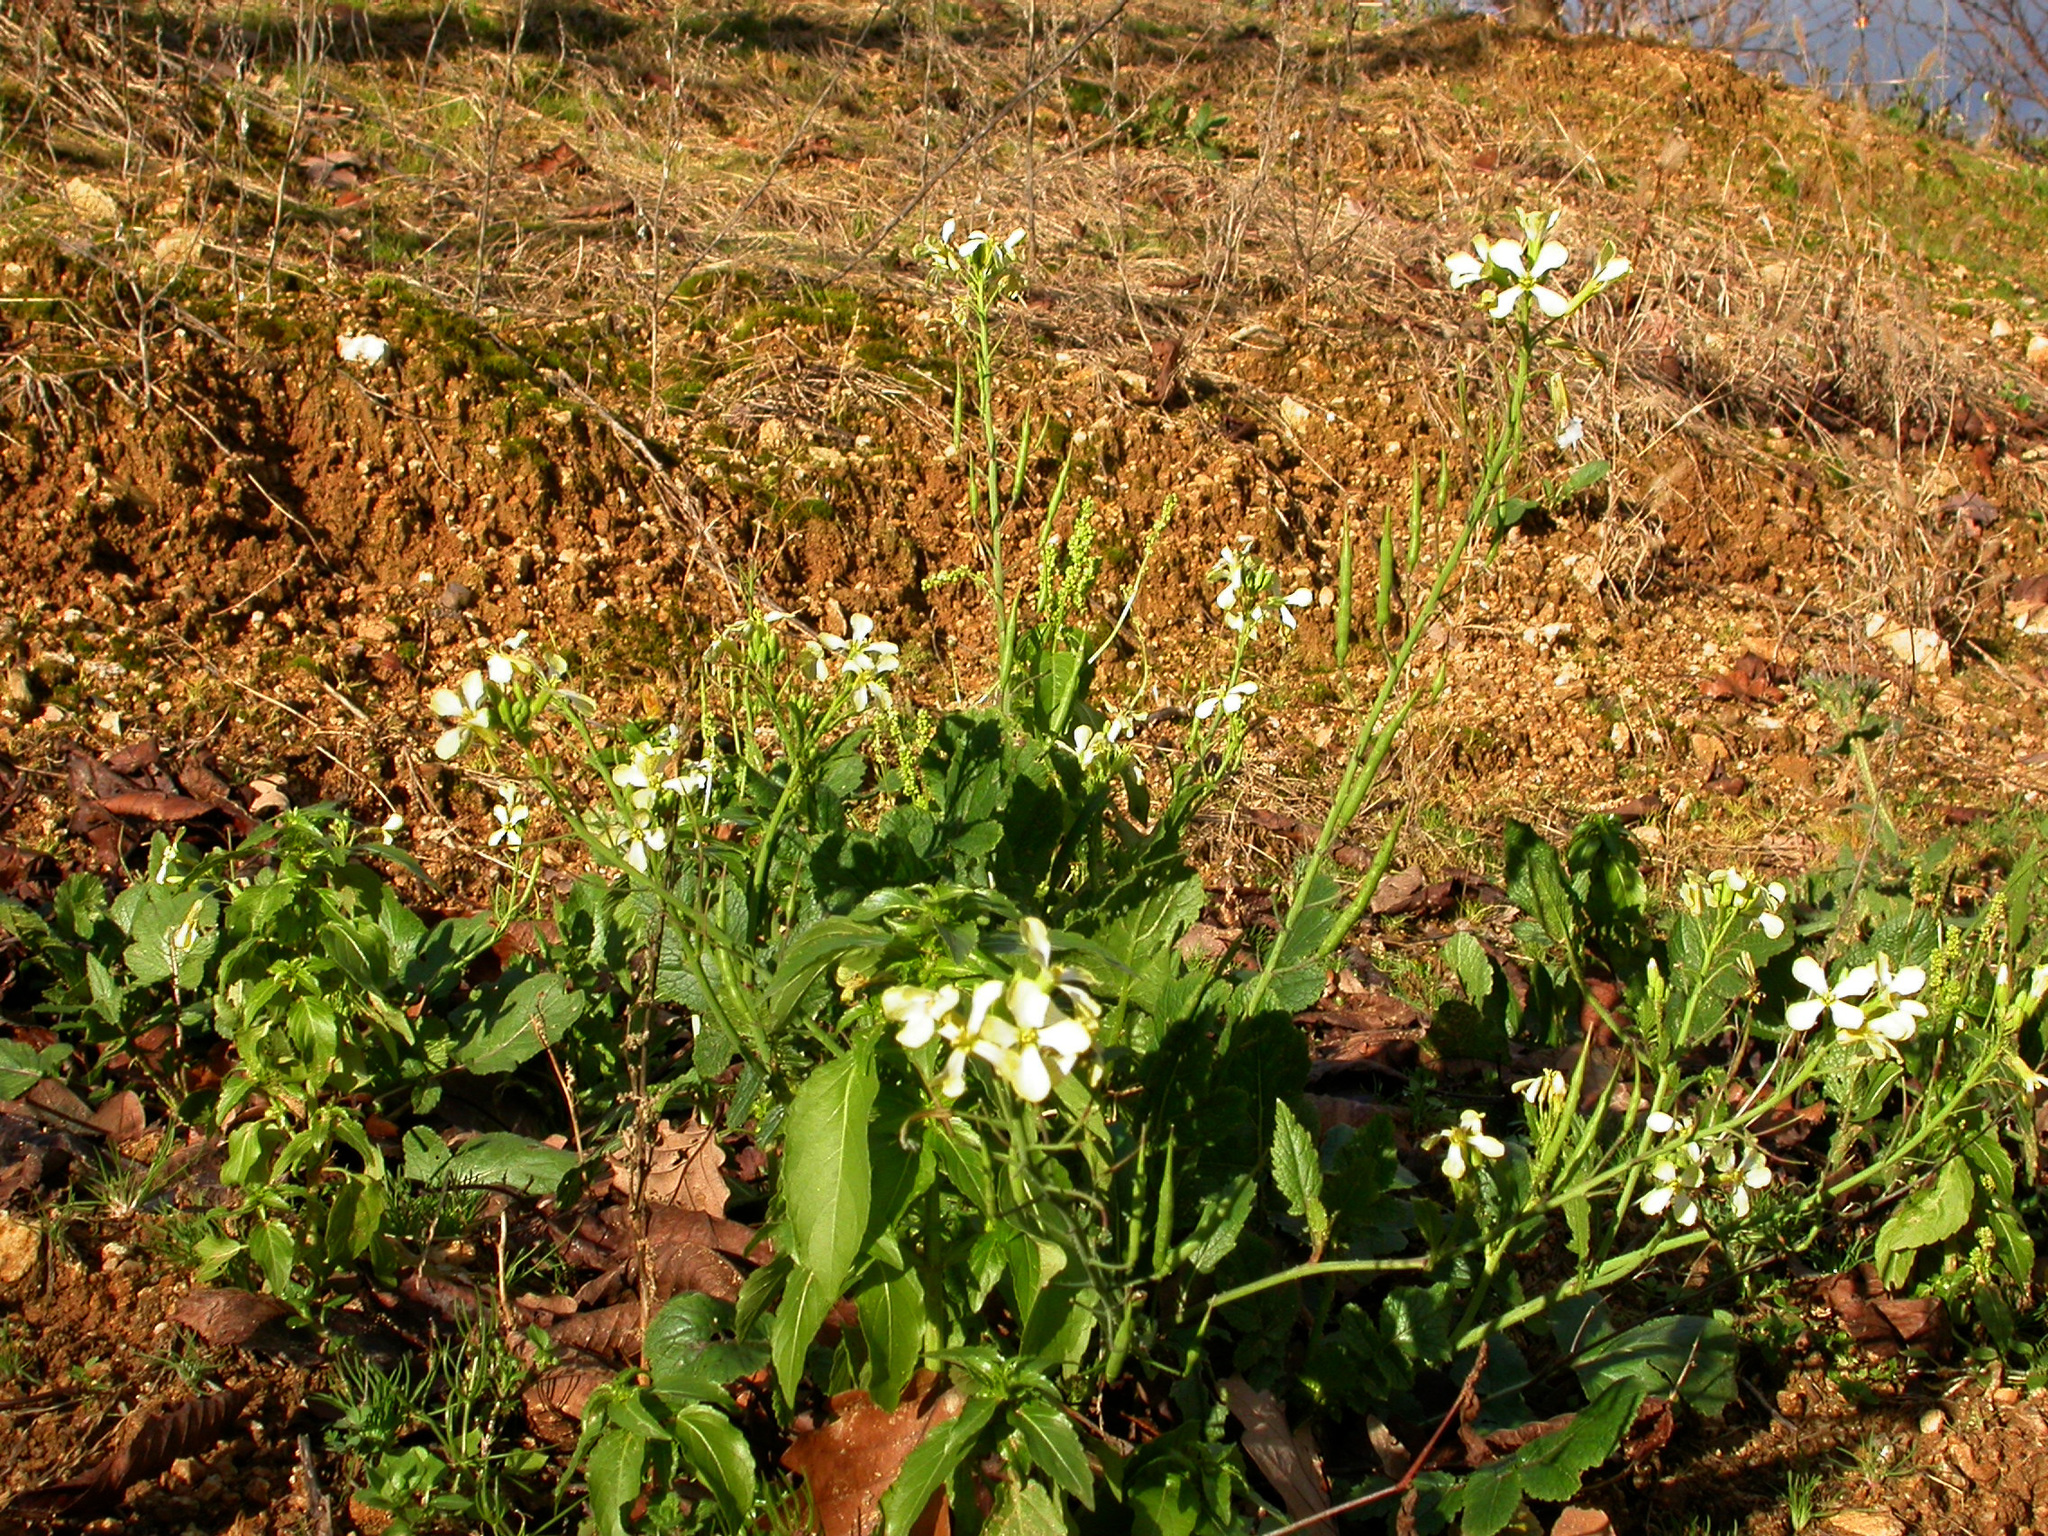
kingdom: Plantae
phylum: Tracheophyta
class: Magnoliopsida
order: Brassicales
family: Brassicaceae
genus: Raphanus
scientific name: Raphanus raphanistrum
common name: Wild radish
